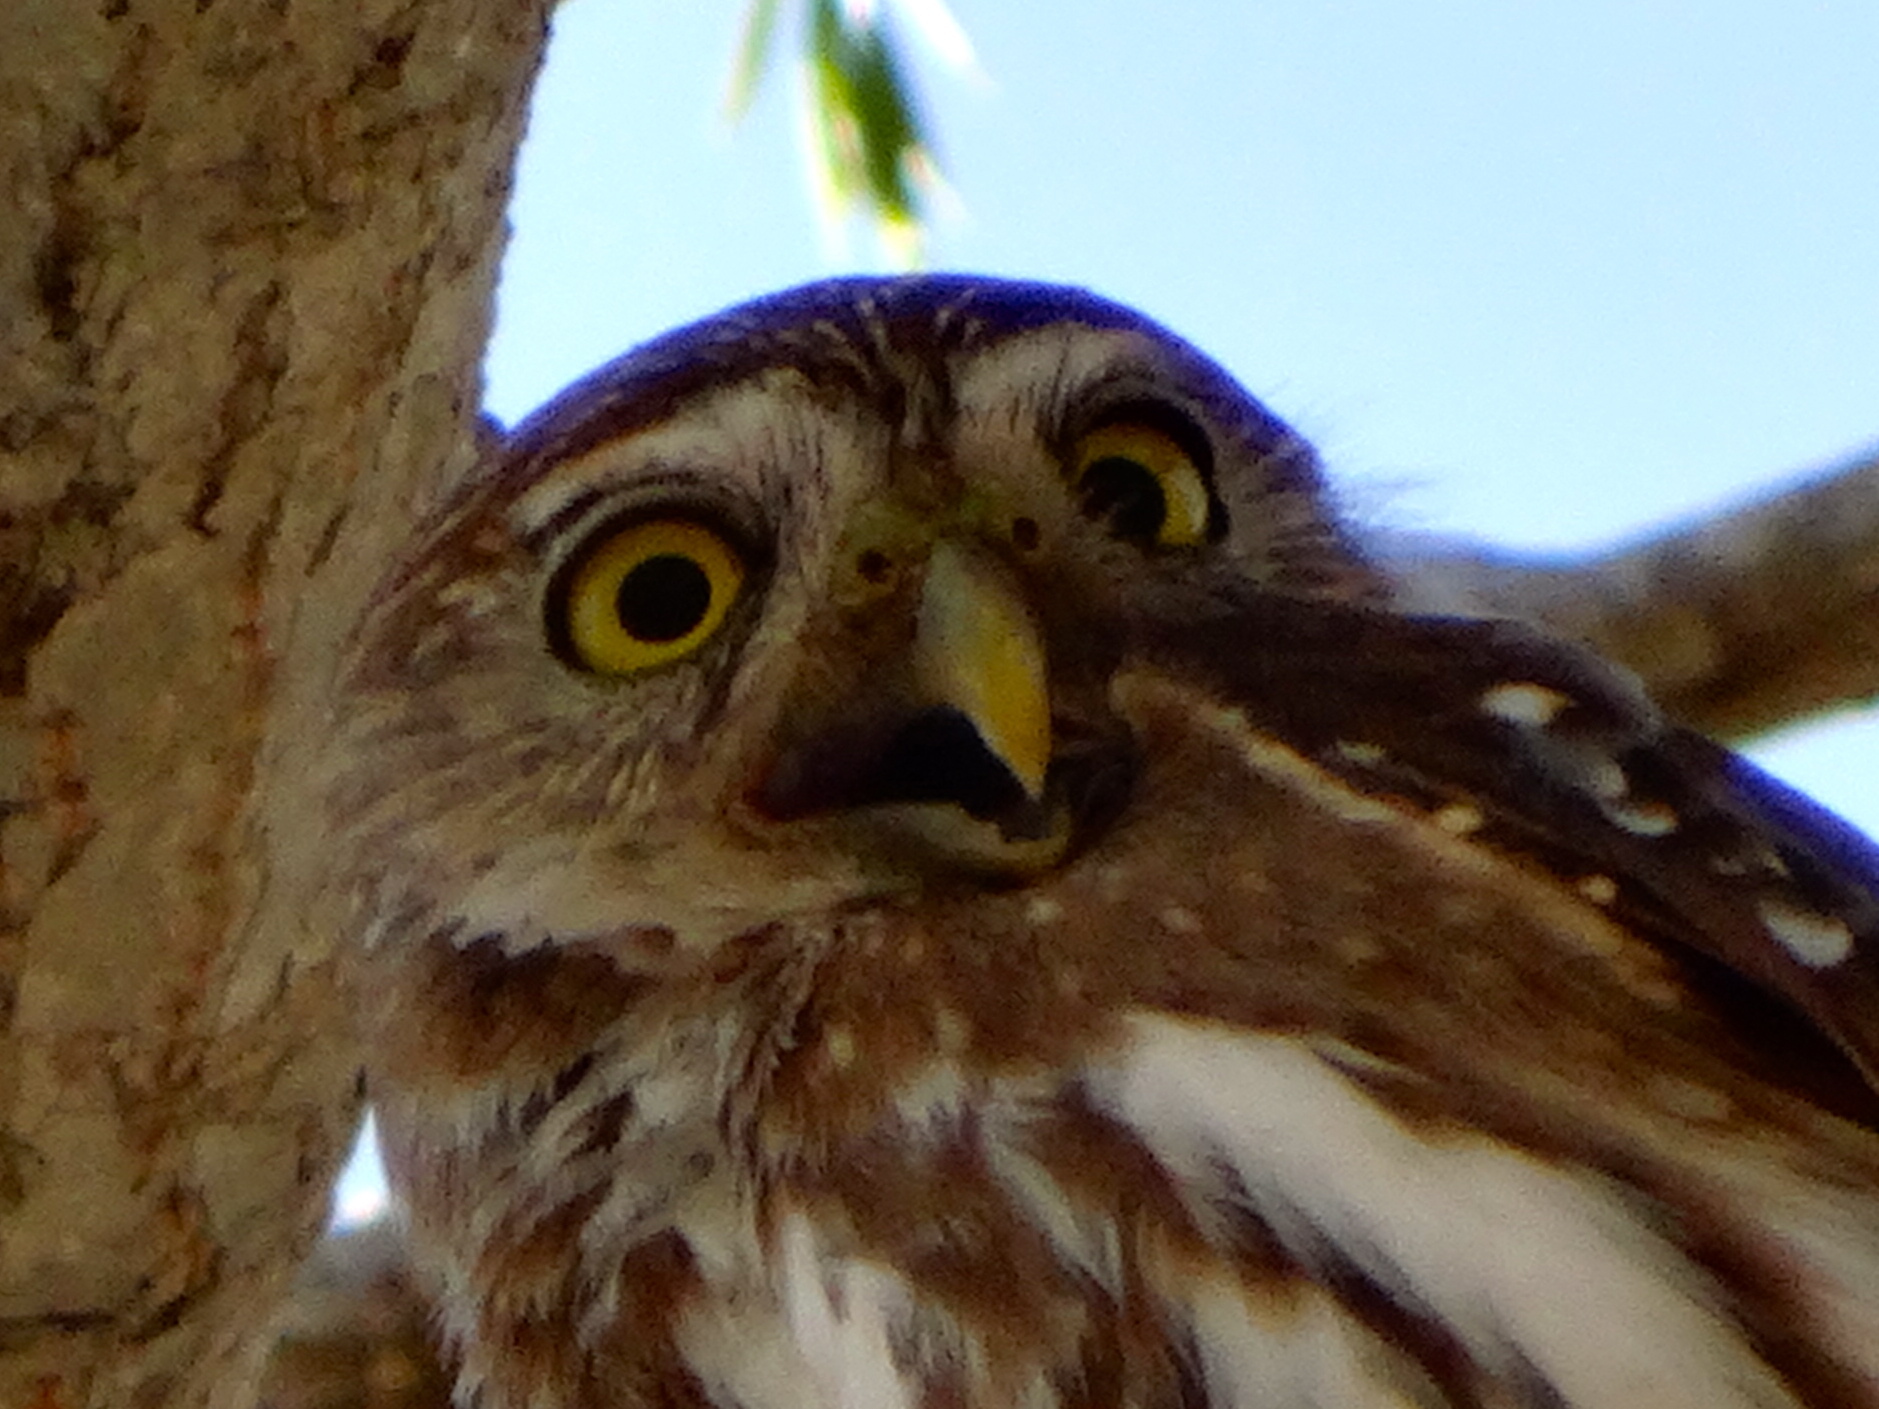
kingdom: Animalia
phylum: Chordata
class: Aves
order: Strigiformes
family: Strigidae
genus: Glaucidium
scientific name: Glaucidium brasilianum
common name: Ferruginous pygmy-owl
